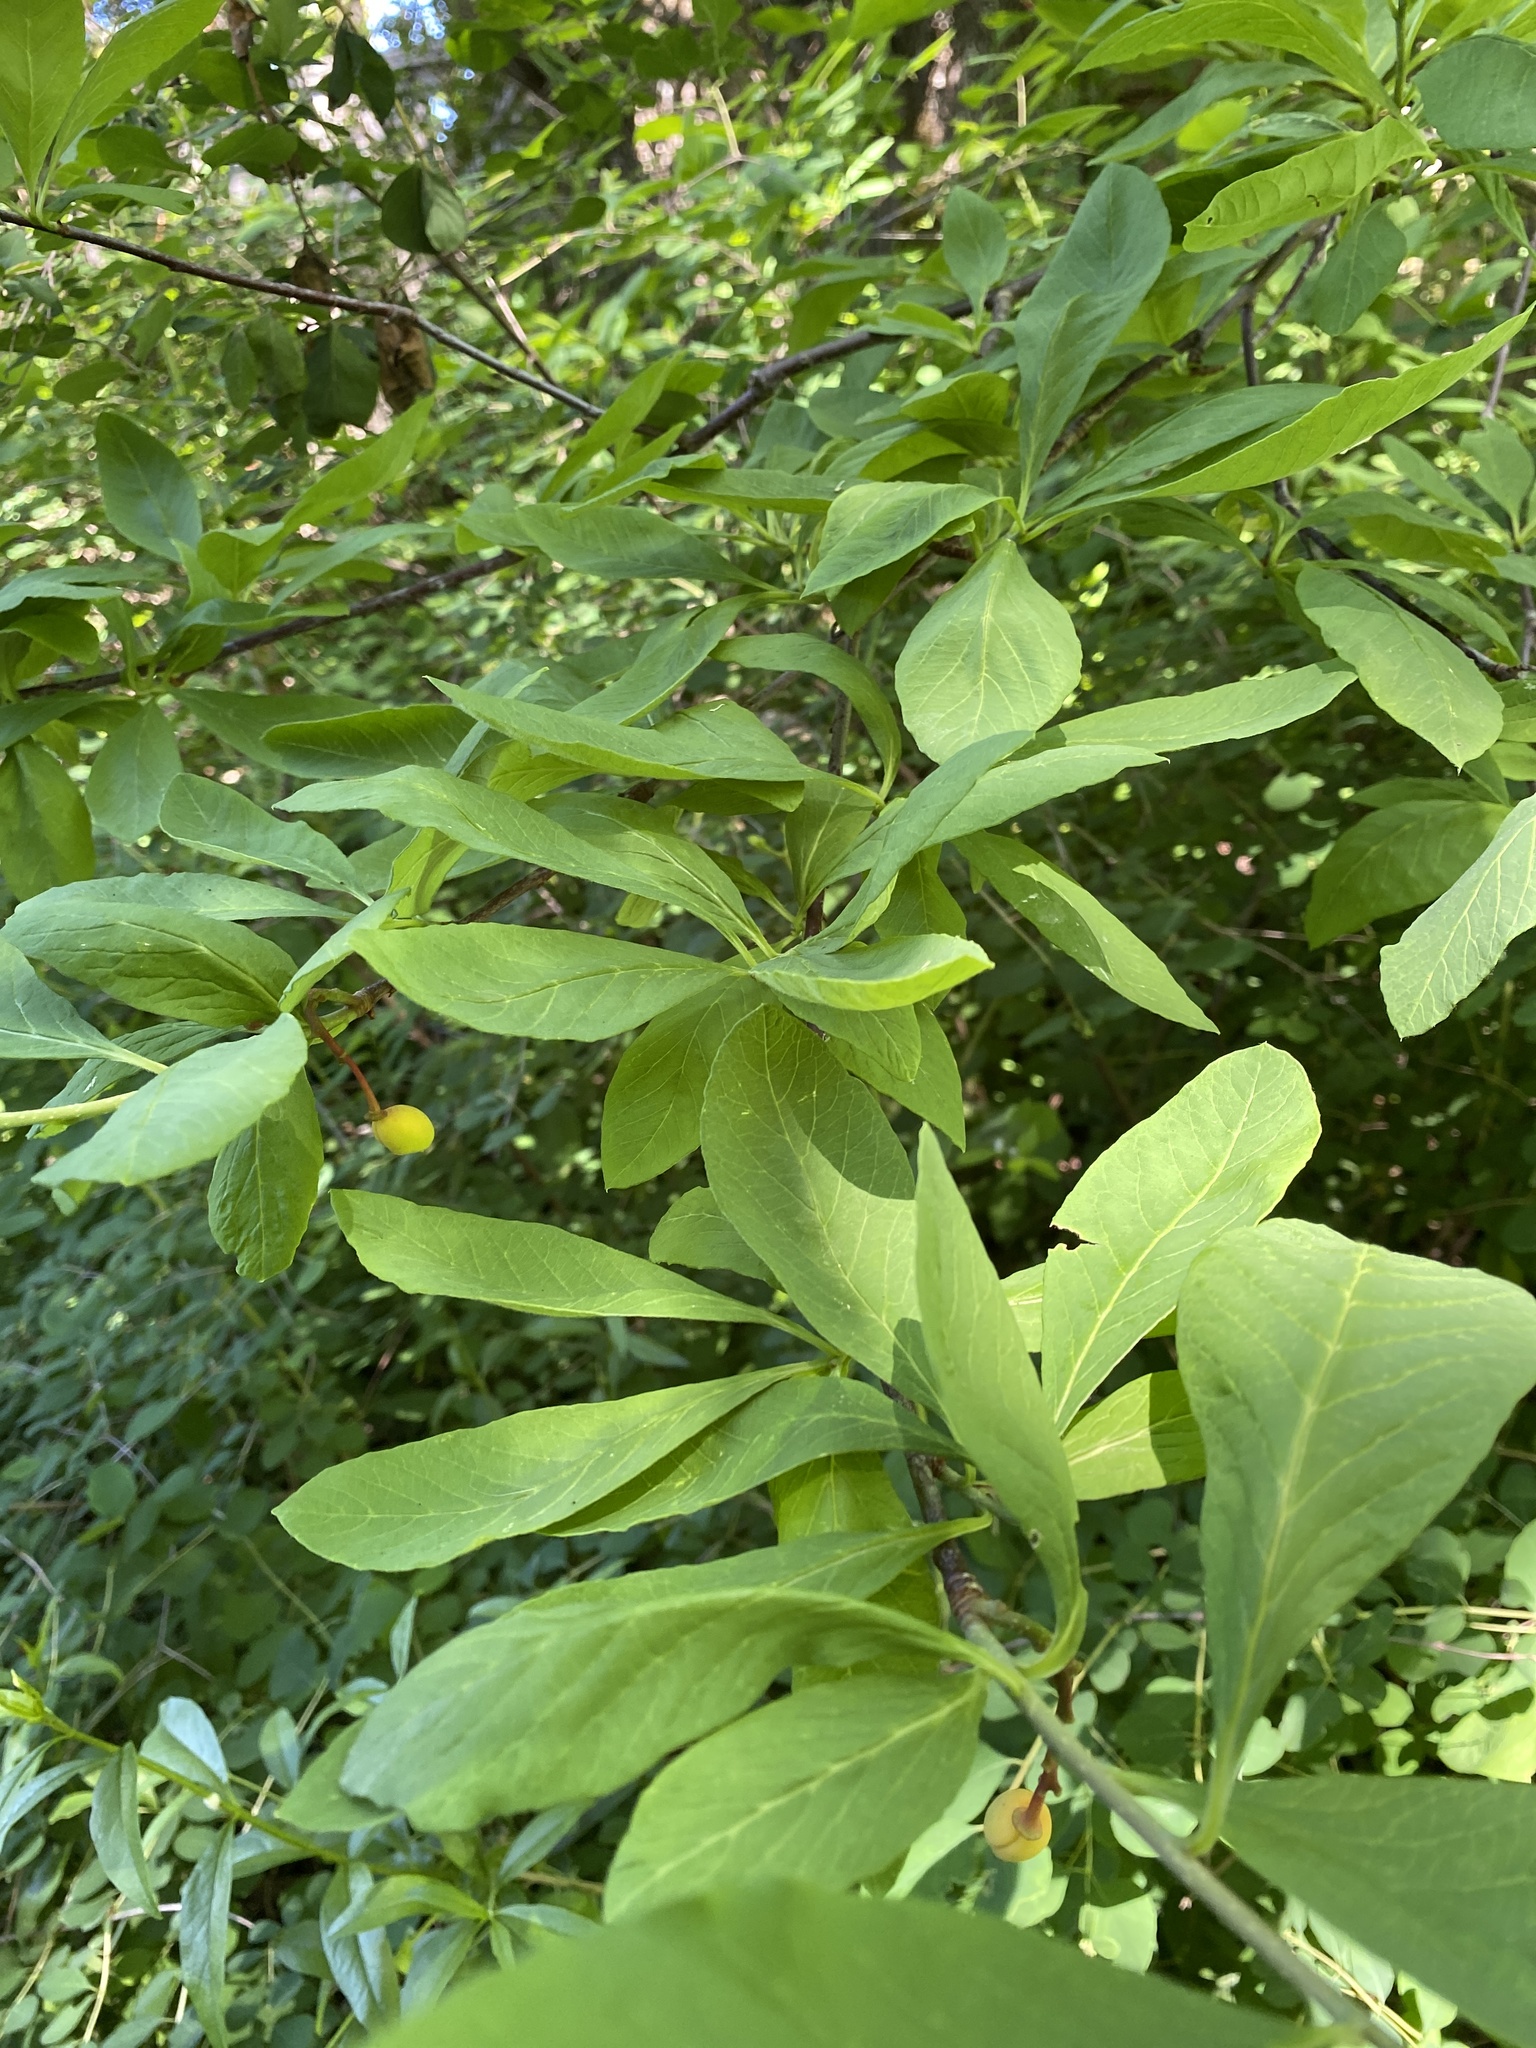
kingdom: Plantae
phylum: Tracheophyta
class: Magnoliopsida
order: Rosales
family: Rosaceae
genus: Oemleria
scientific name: Oemleria cerasiformis
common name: Osoberry
